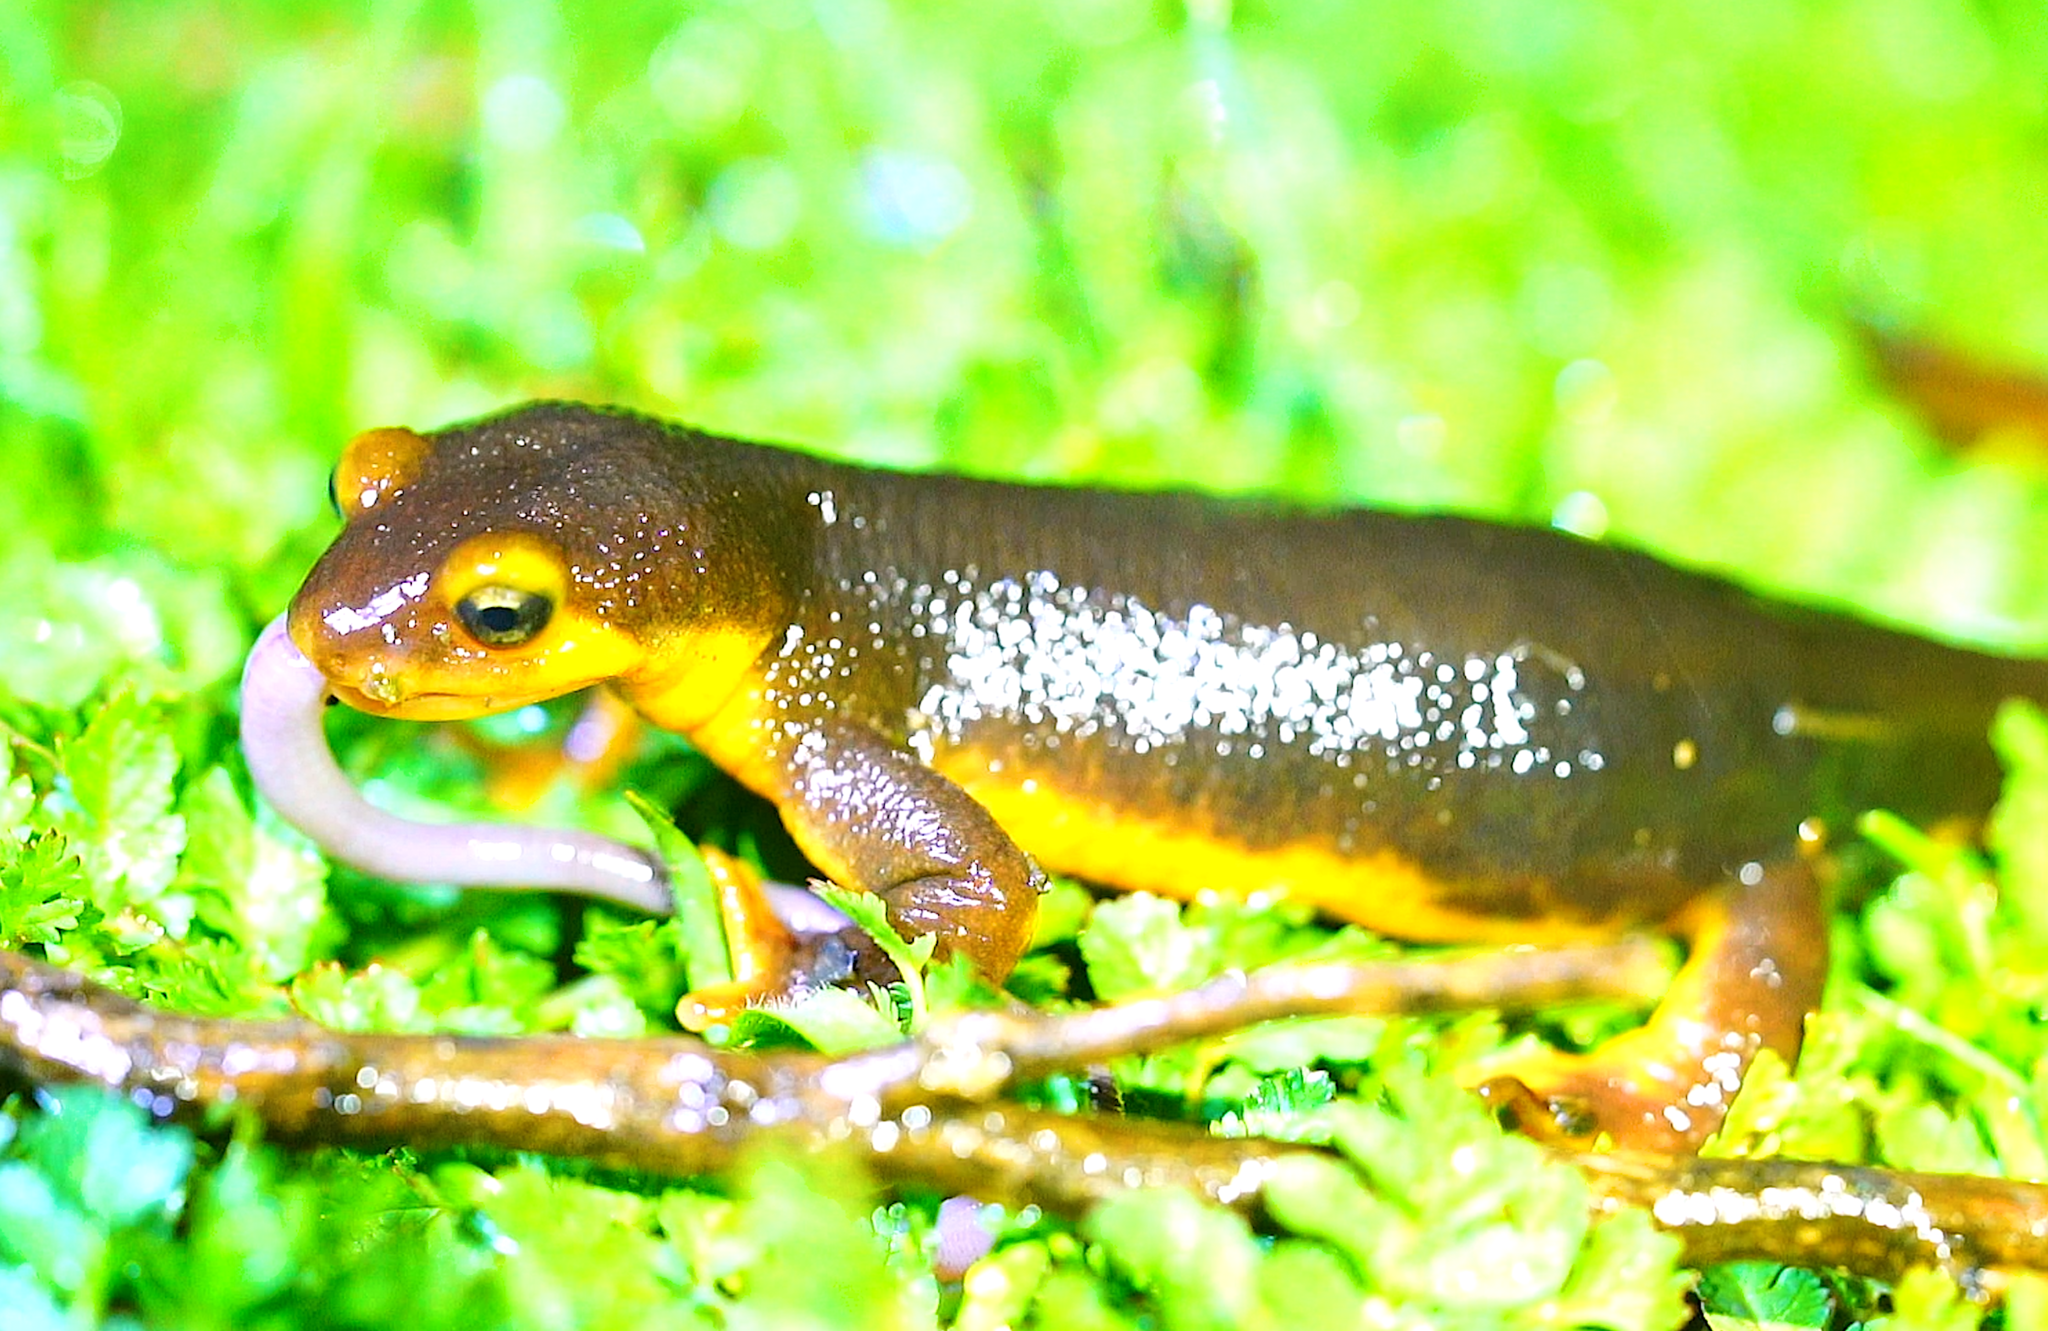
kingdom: Animalia
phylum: Chordata
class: Amphibia
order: Caudata
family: Salamandridae
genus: Taricha
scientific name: Taricha torosa
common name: California newt
